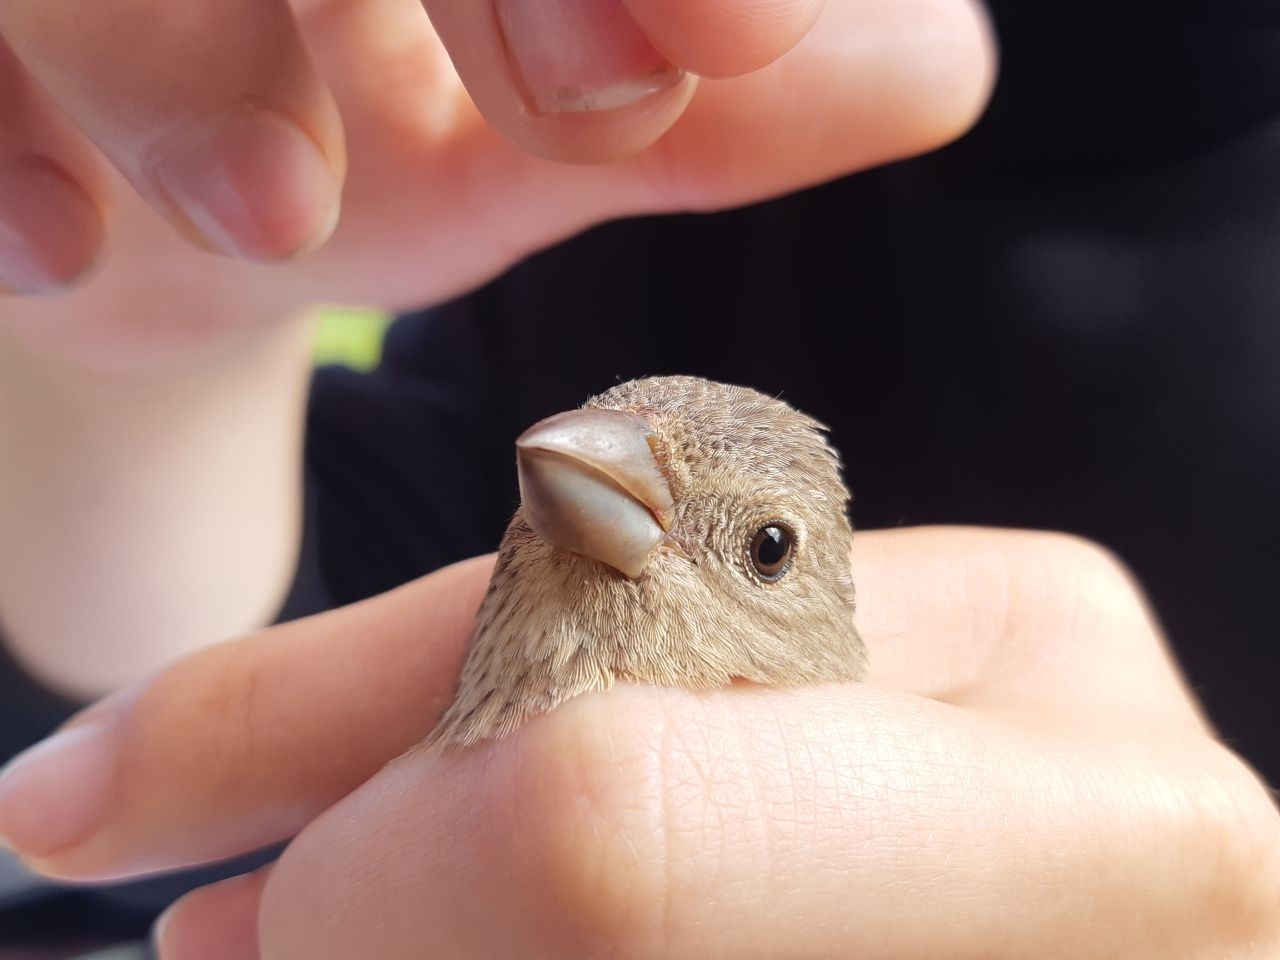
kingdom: Animalia
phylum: Chordata
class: Aves
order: Passeriformes
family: Fringillidae
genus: Carpodacus
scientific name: Carpodacus erythrinus
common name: Common rosefinch
